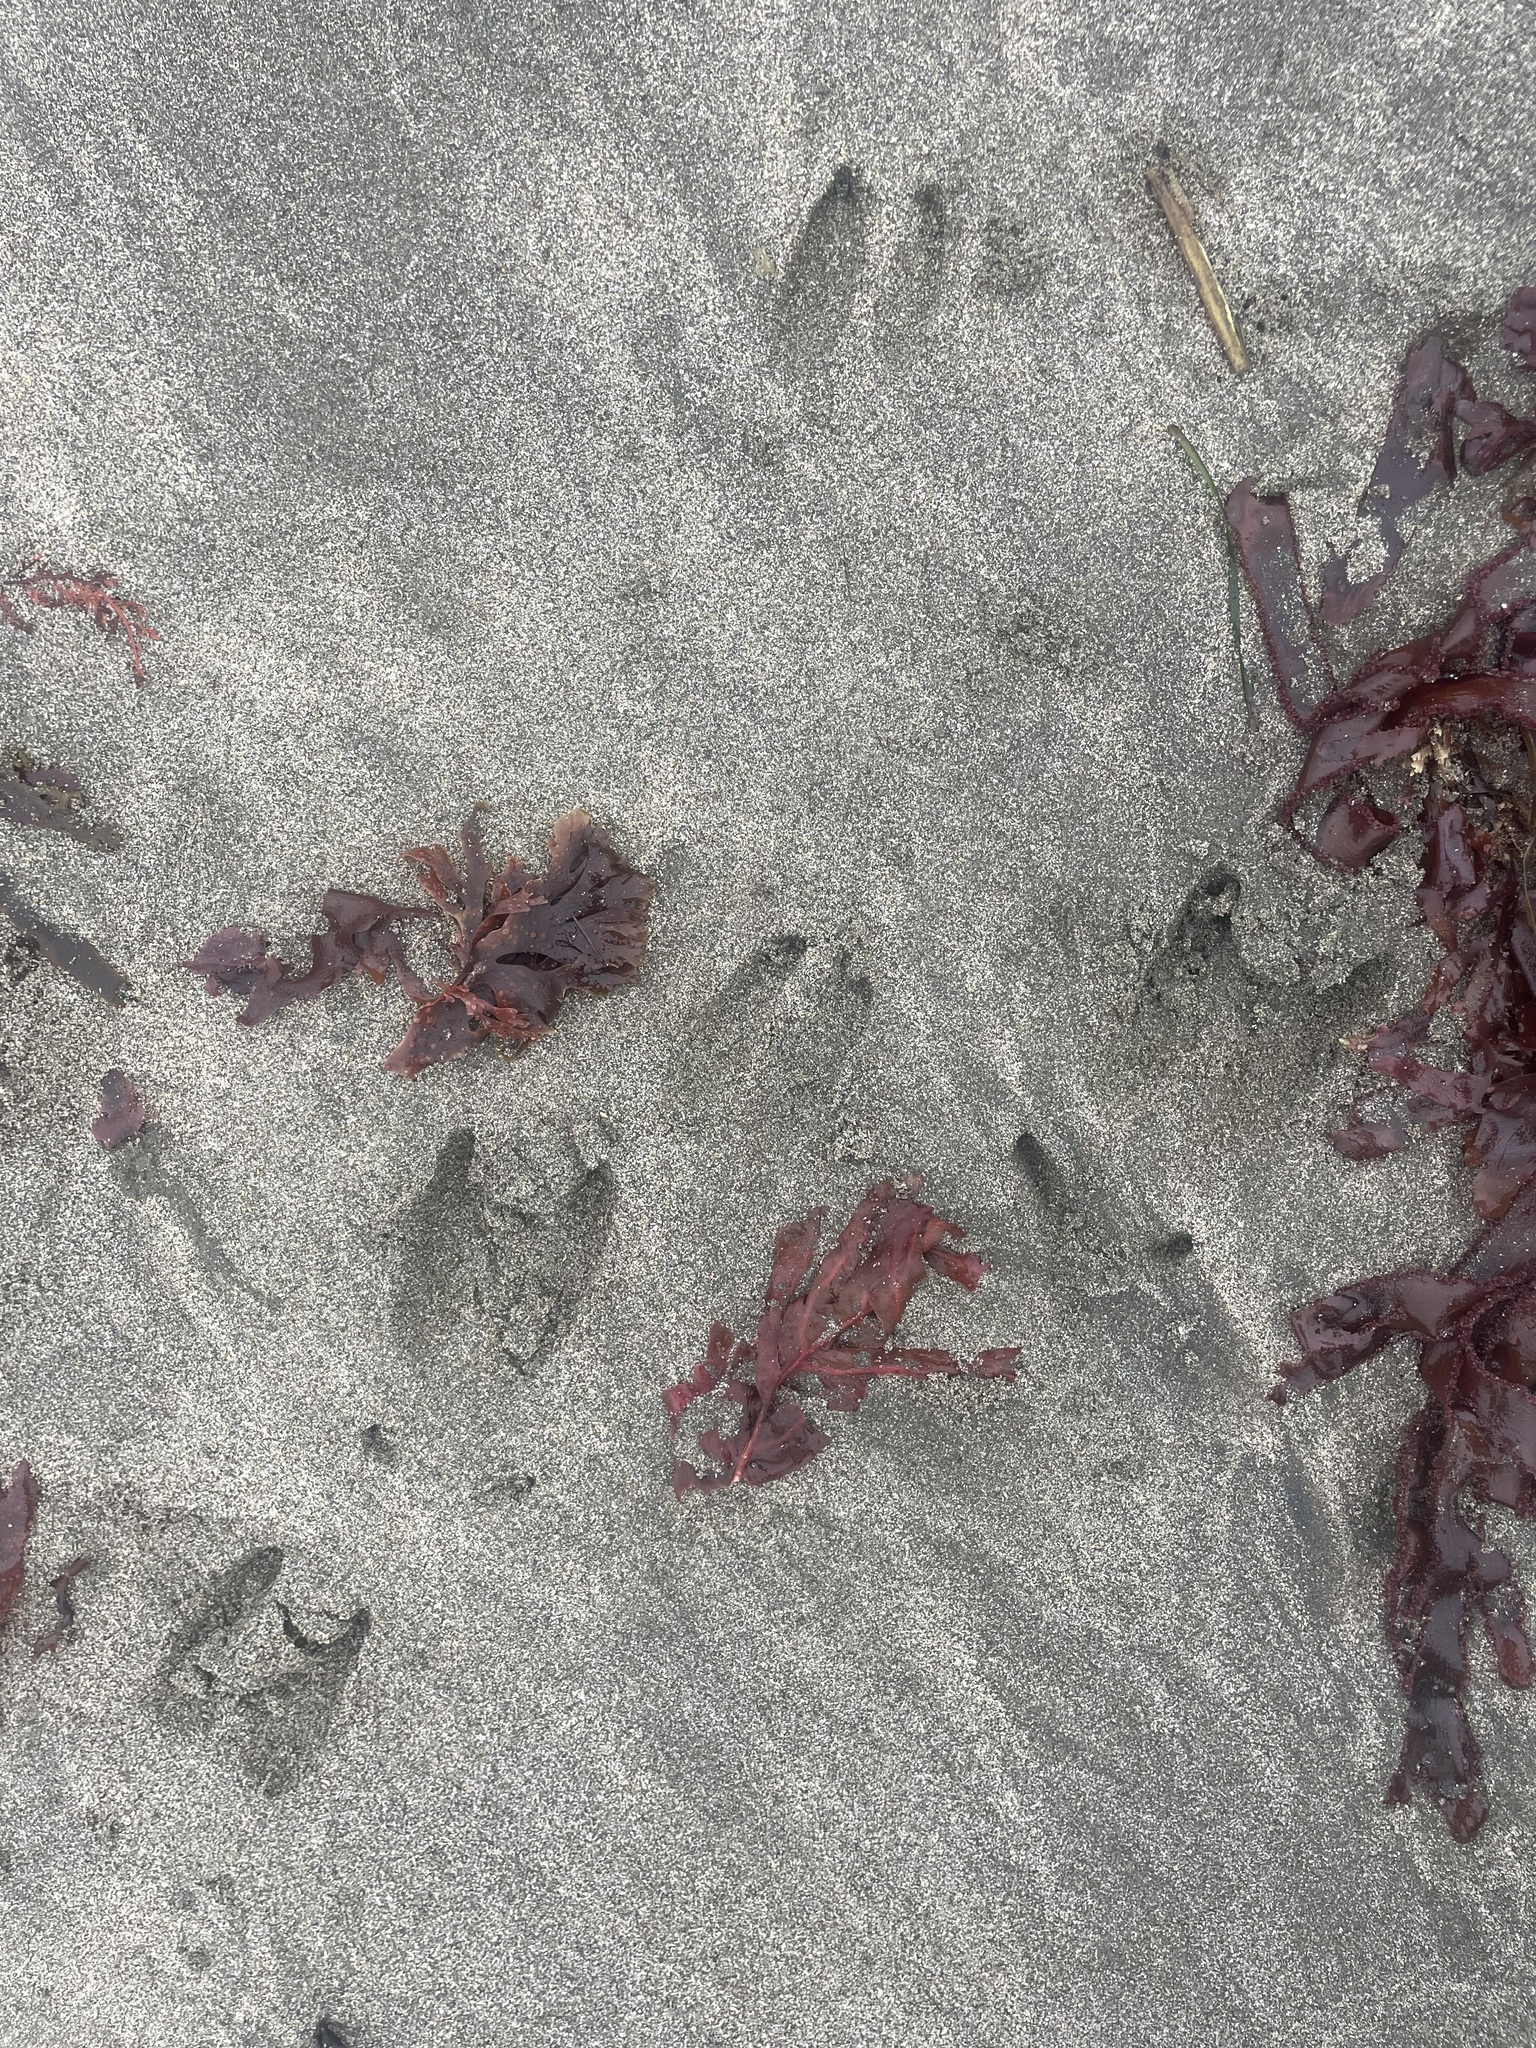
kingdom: Animalia
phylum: Chordata
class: Mammalia
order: Artiodactyla
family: Cervidae
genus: Odocoileus
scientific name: Odocoileus hemionus
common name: Mule deer
